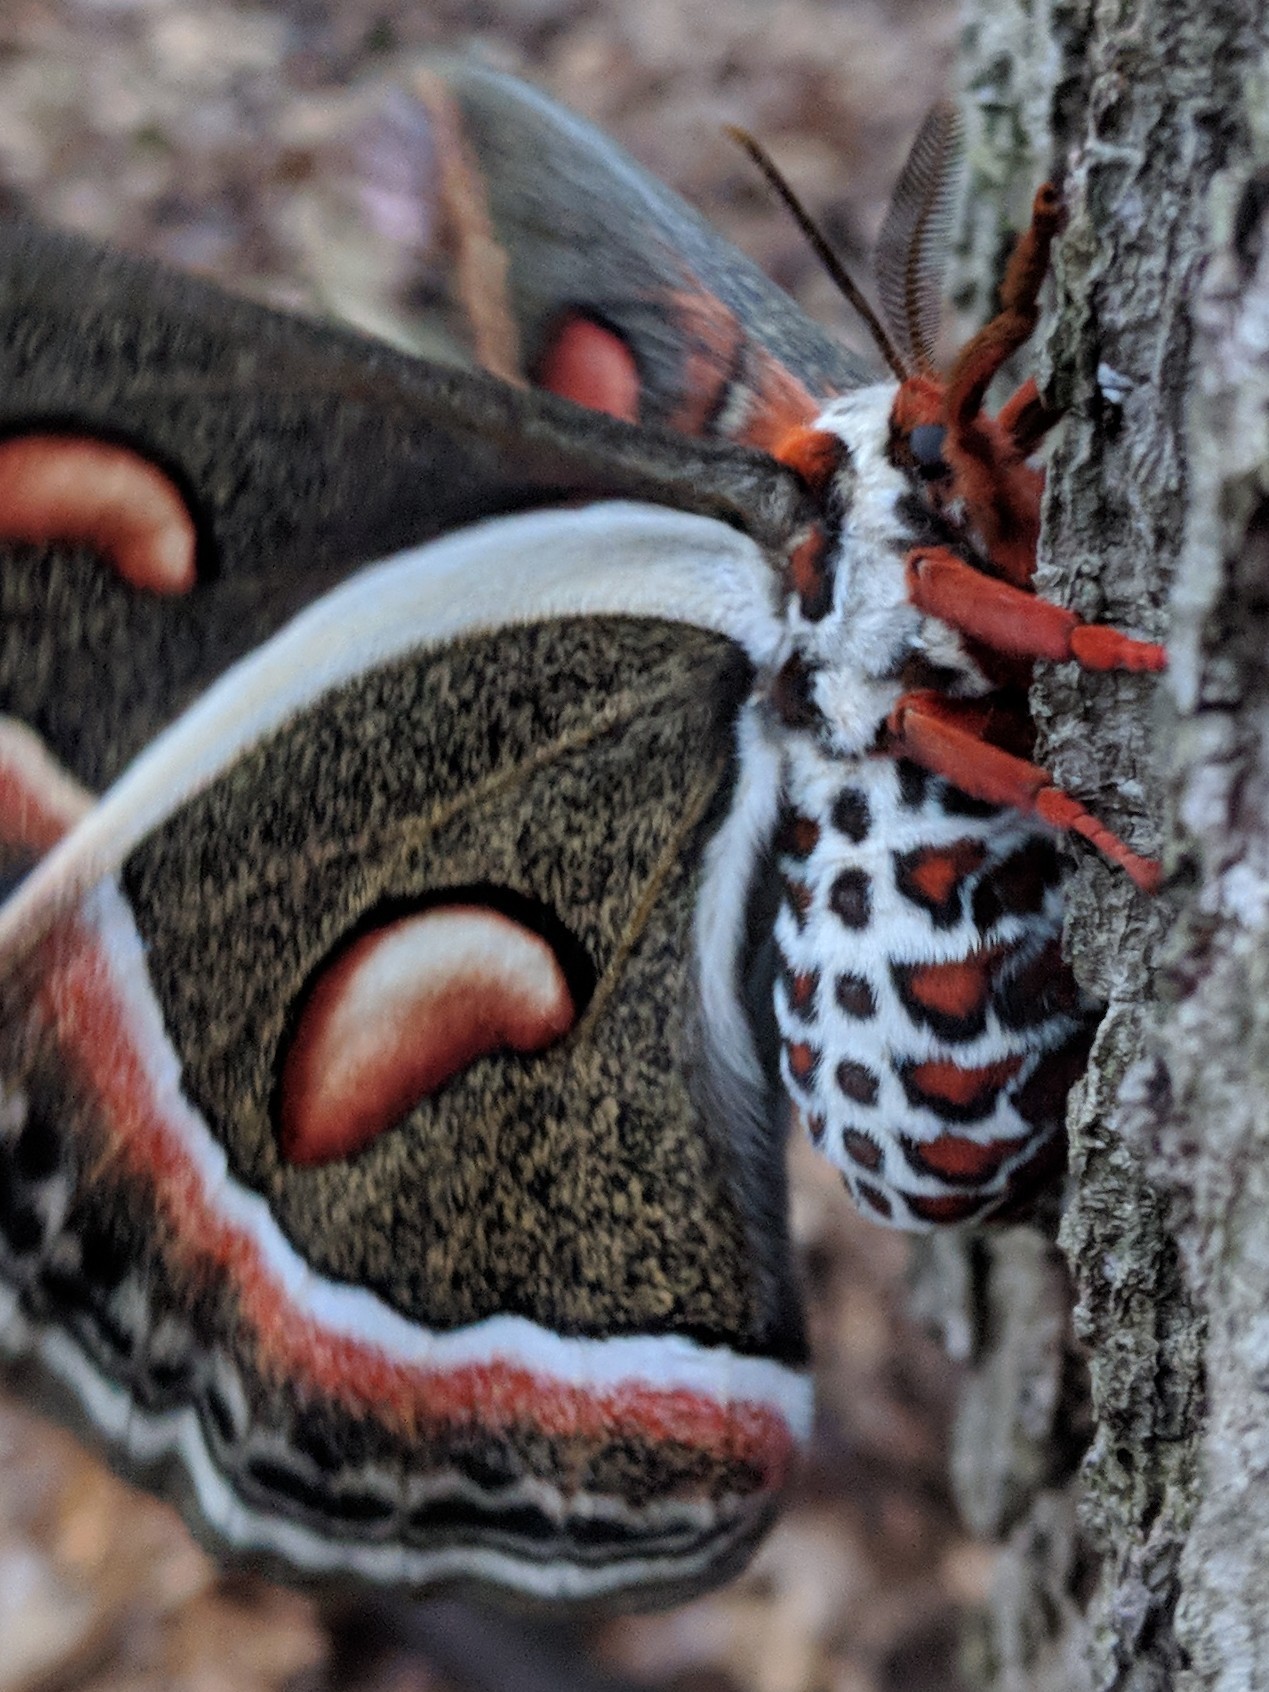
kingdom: Animalia
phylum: Arthropoda
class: Insecta
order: Lepidoptera
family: Saturniidae
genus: Hyalophora
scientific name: Hyalophora cecropia
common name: Cecropia silkmoth
